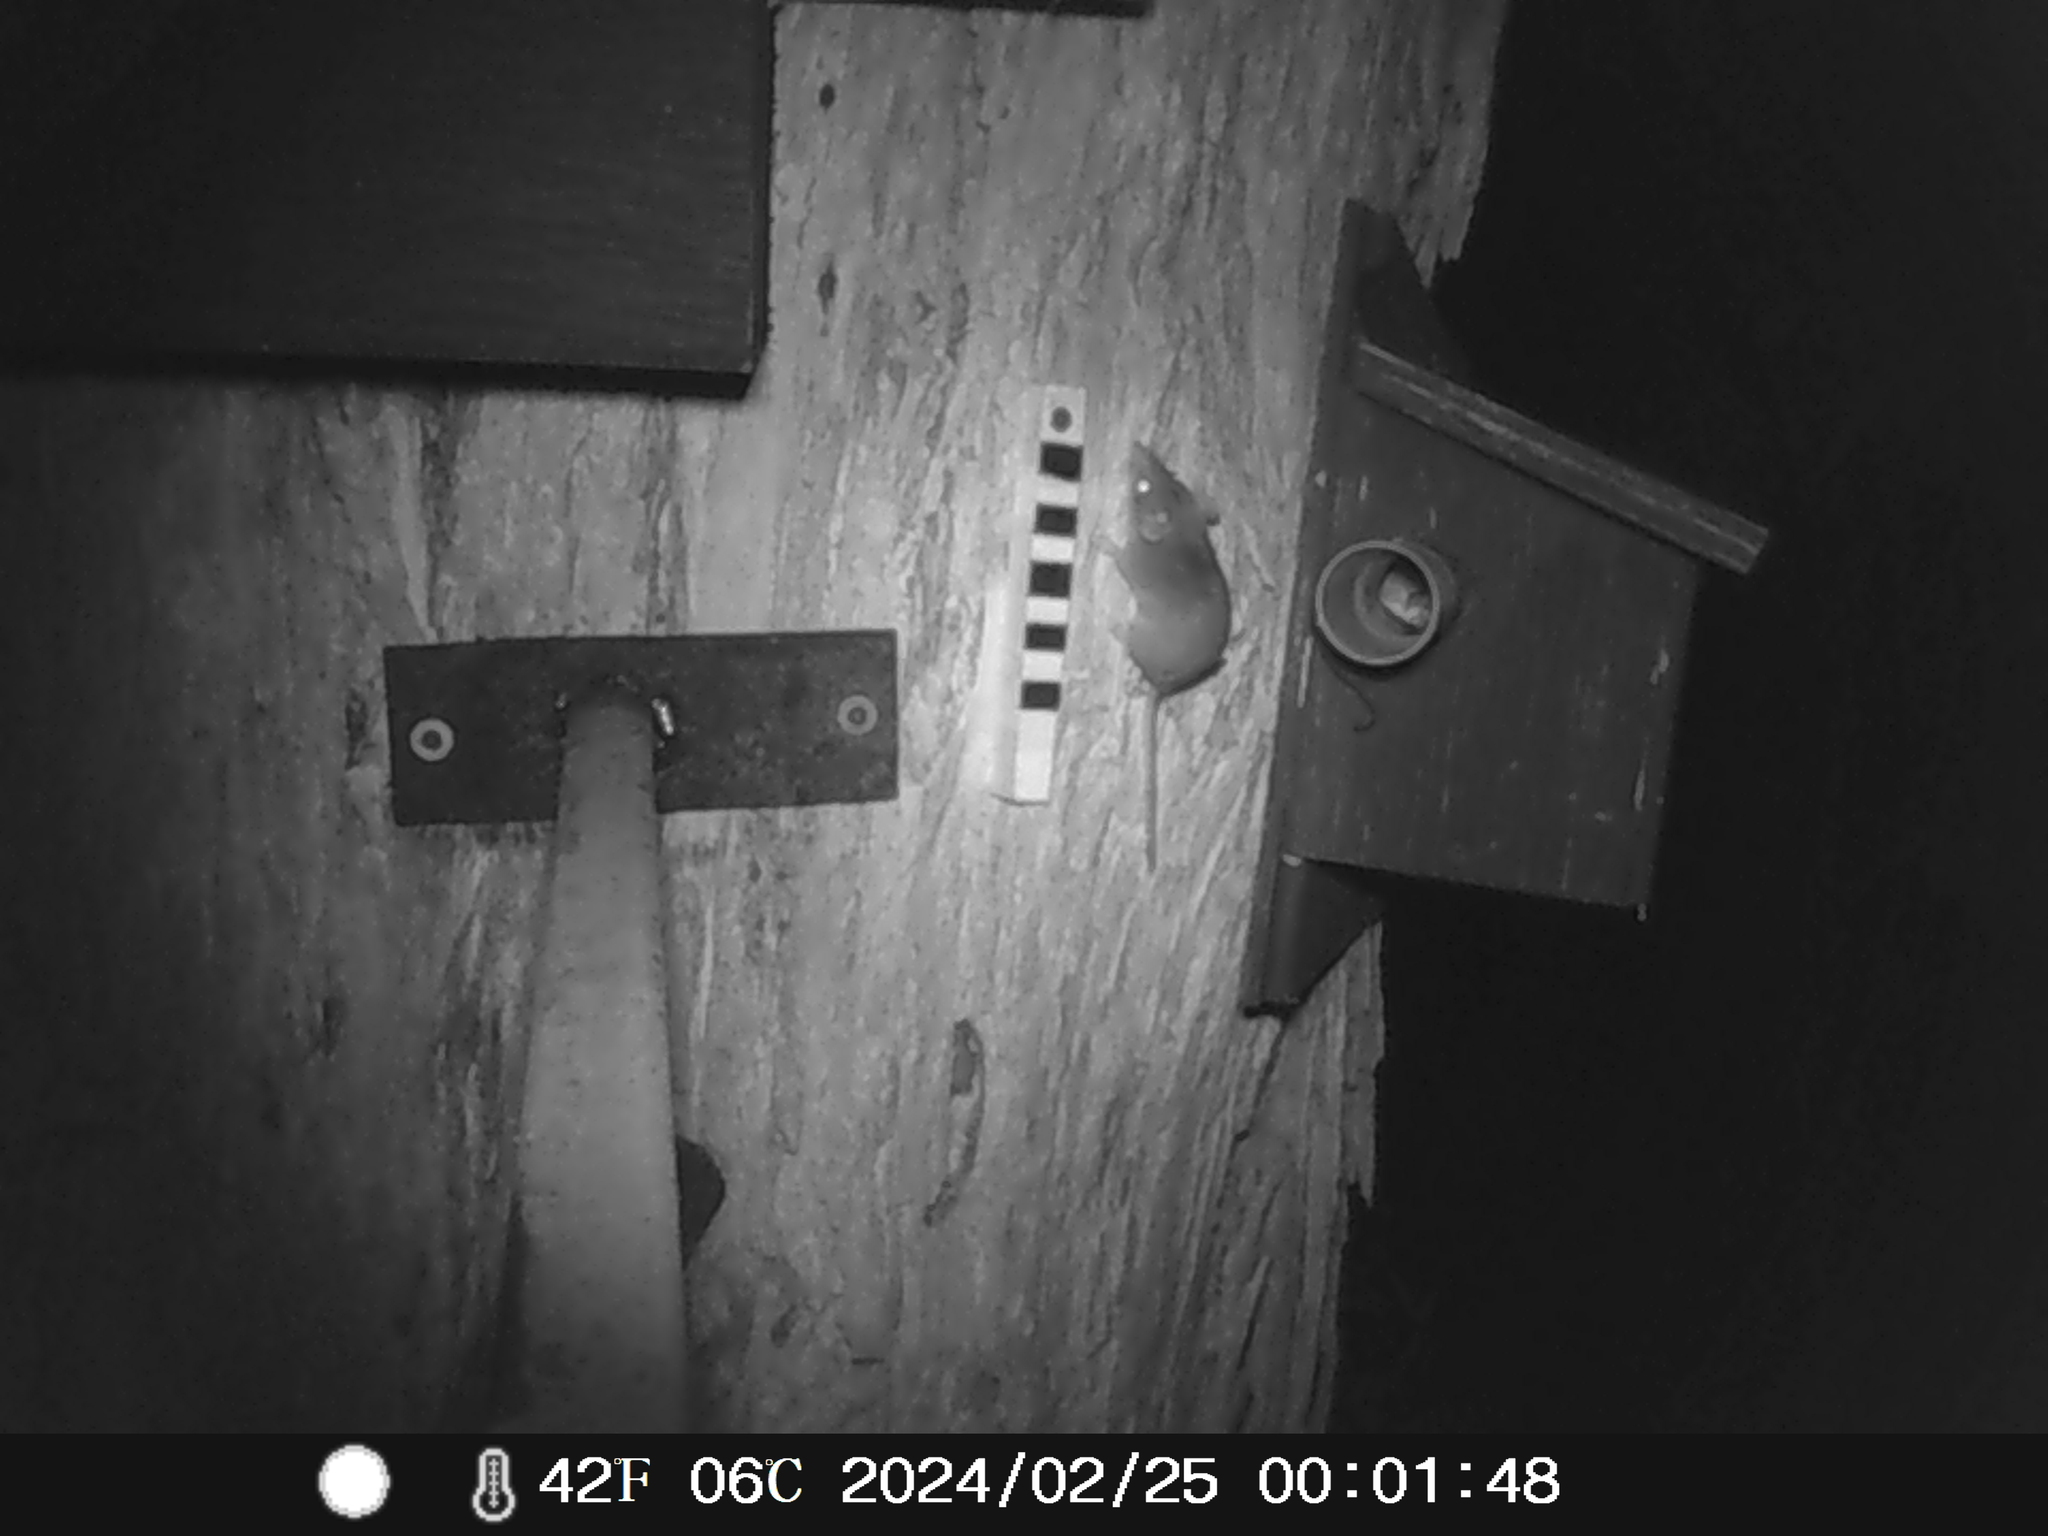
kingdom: Animalia
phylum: Chordata
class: Mammalia
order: Dasyuromorphia
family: Dasyuridae
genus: Antechinus
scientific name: Antechinus agilis
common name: Agile antechinus
